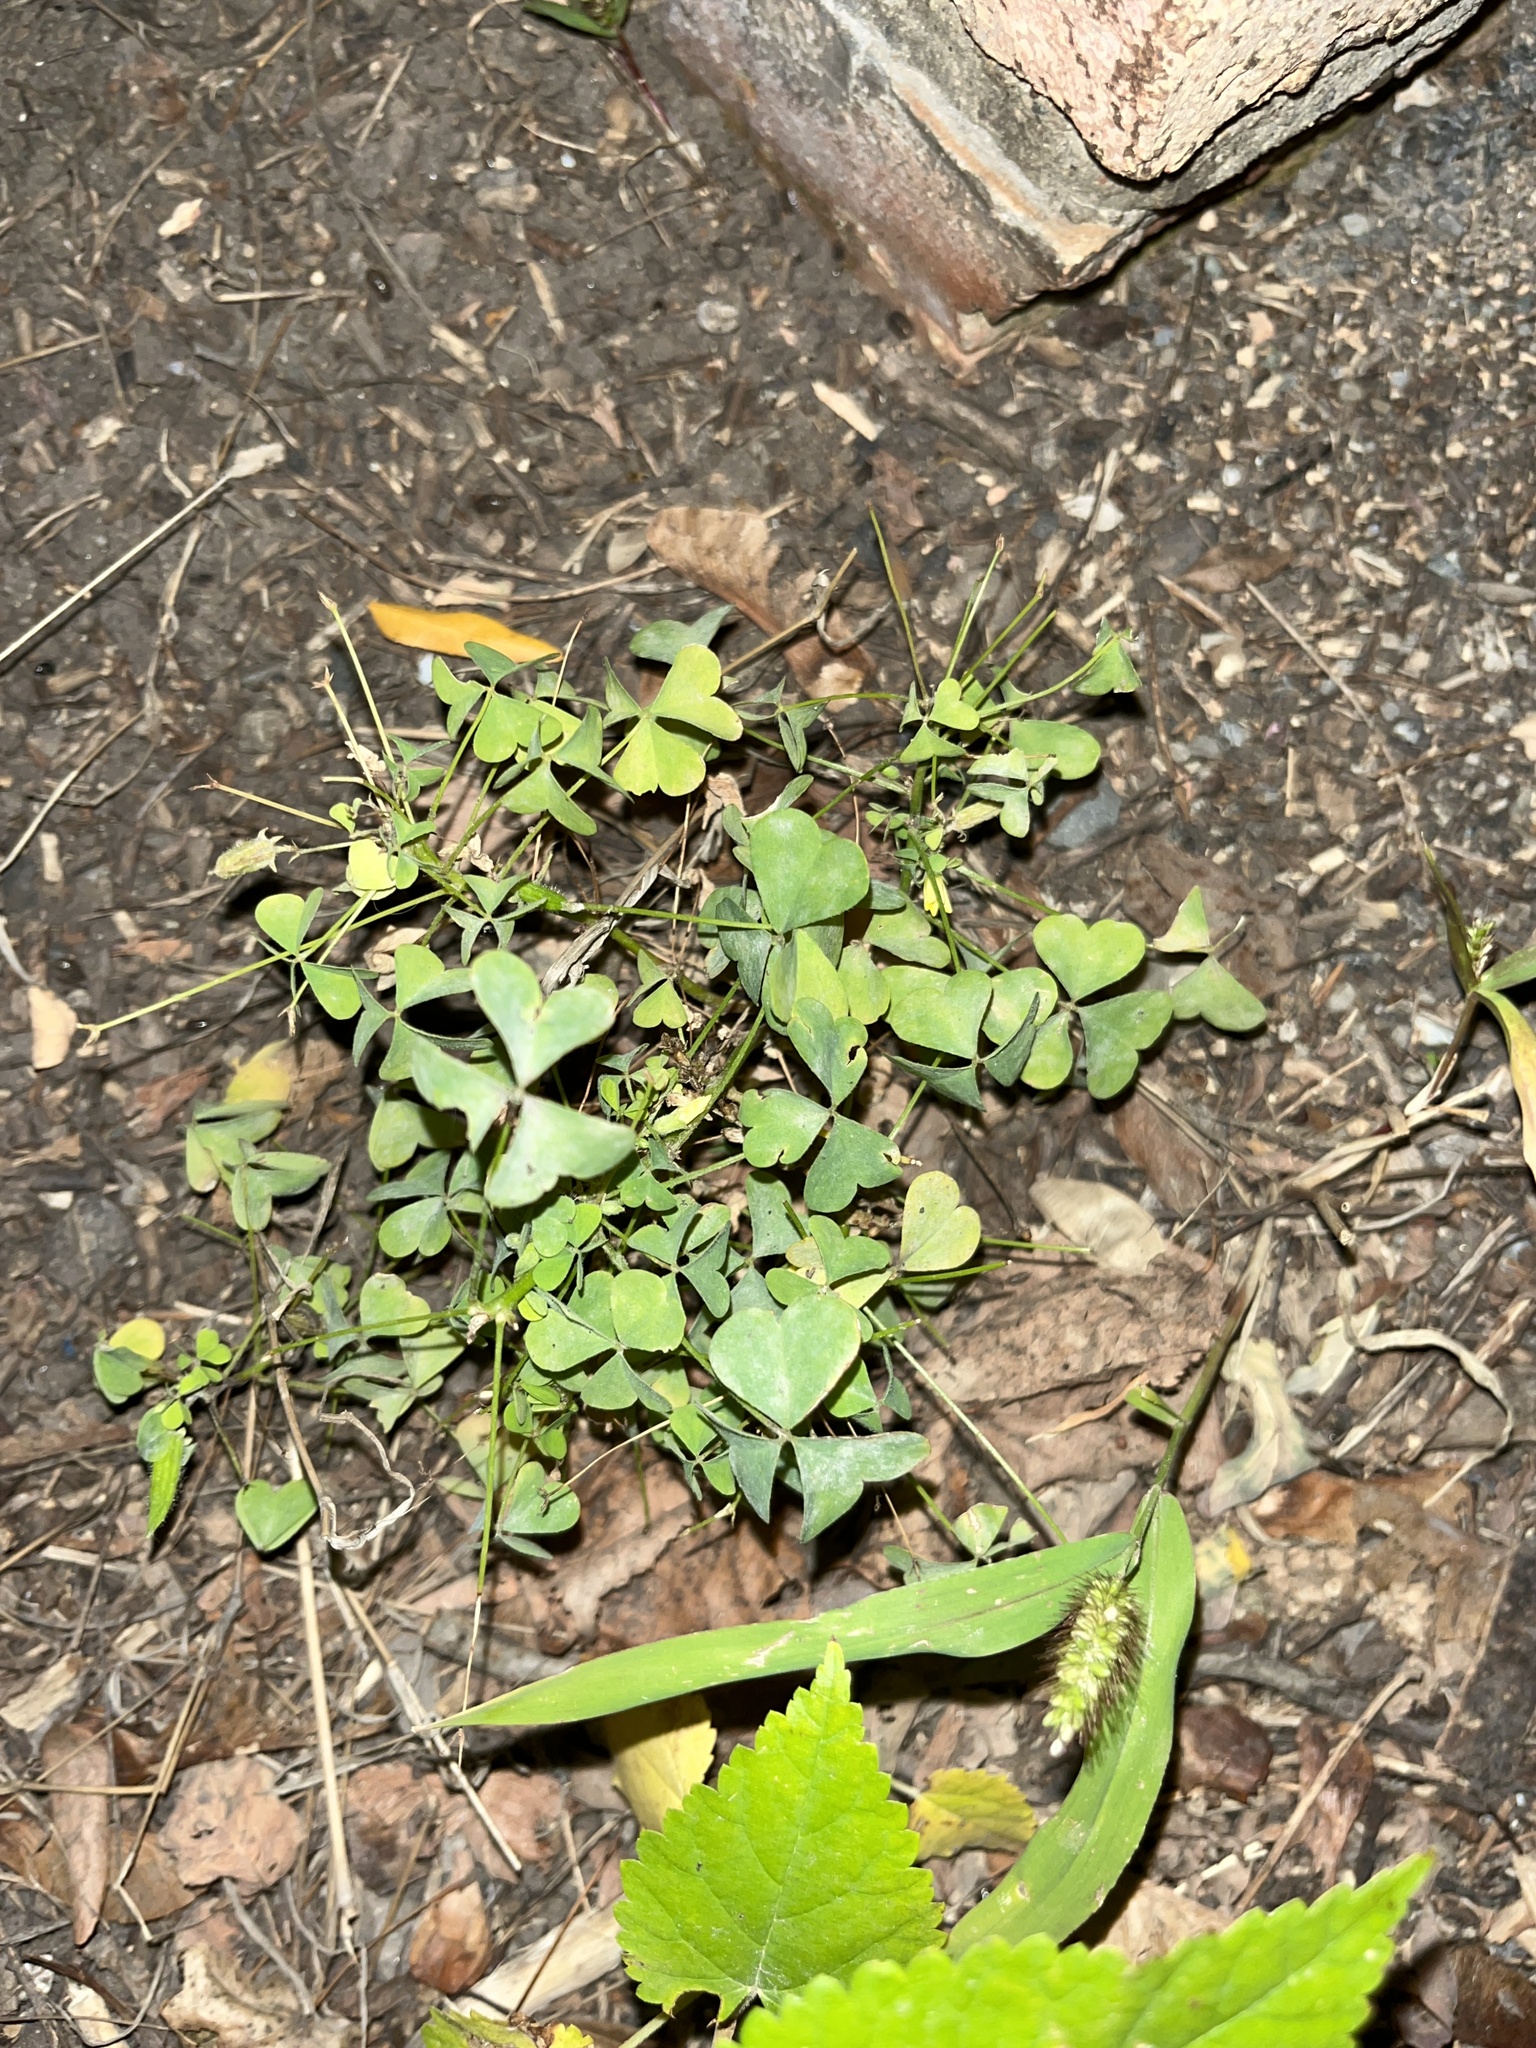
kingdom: Plantae
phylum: Tracheophyta
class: Magnoliopsida
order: Oxalidales
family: Oxalidaceae
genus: Oxalis
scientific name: Oxalis
